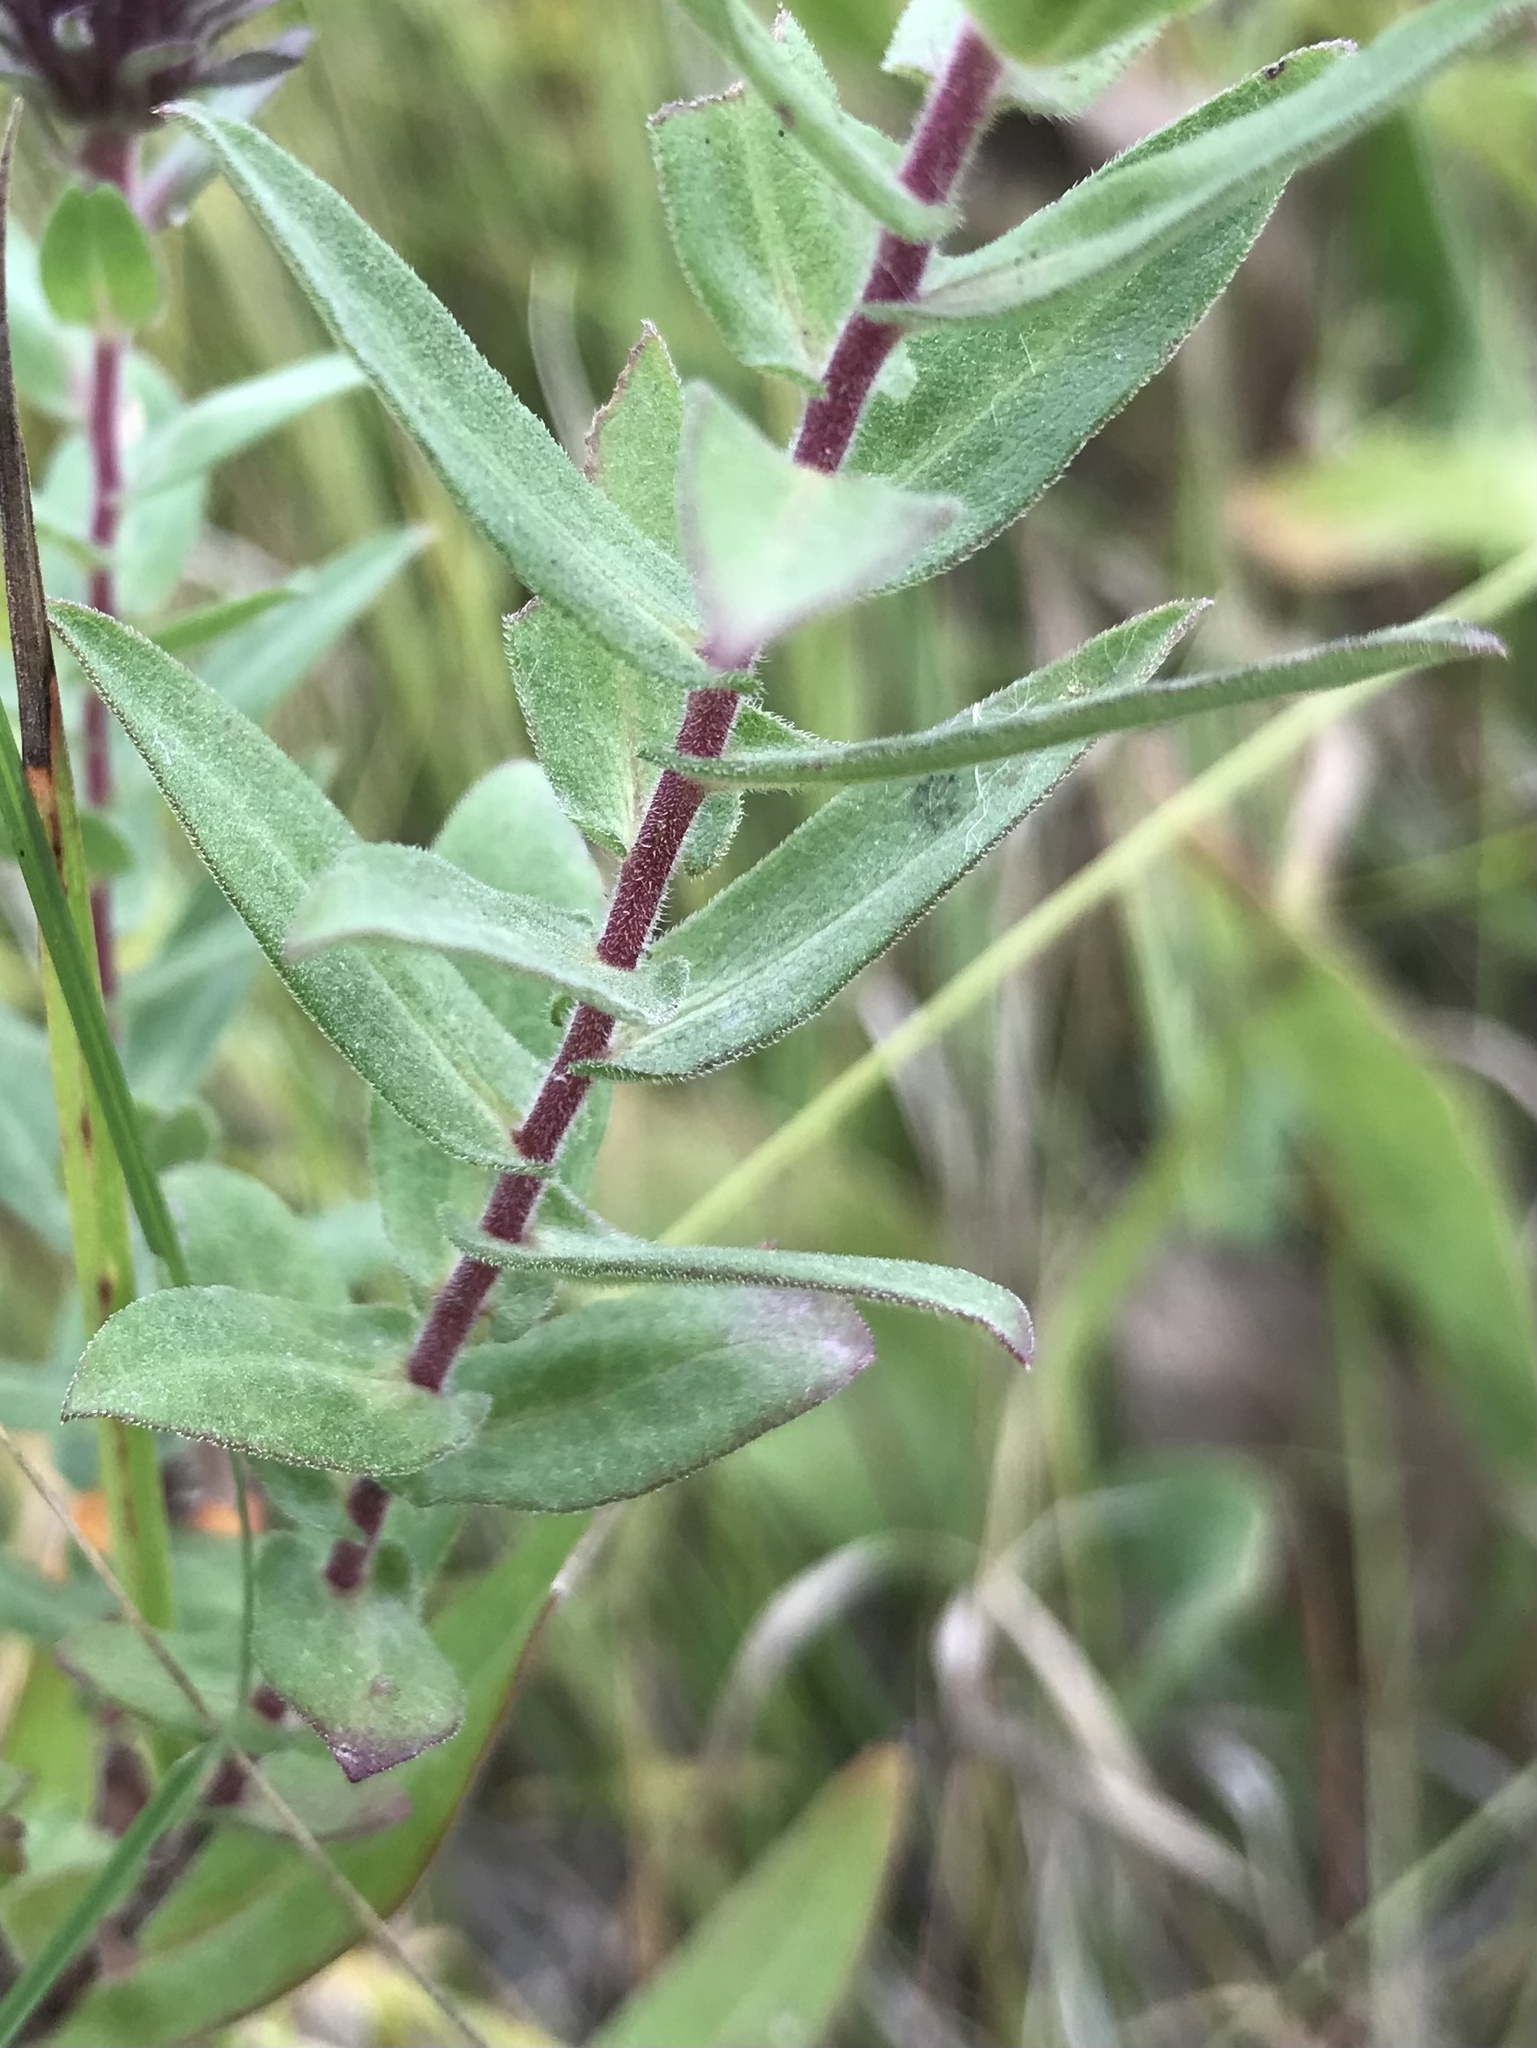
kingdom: Plantae
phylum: Tracheophyta
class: Magnoliopsida
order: Asterales
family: Asteraceae
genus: Symphyotrichum
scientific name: Symphyotrichum novae-angliae
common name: Michaelmas daisy
